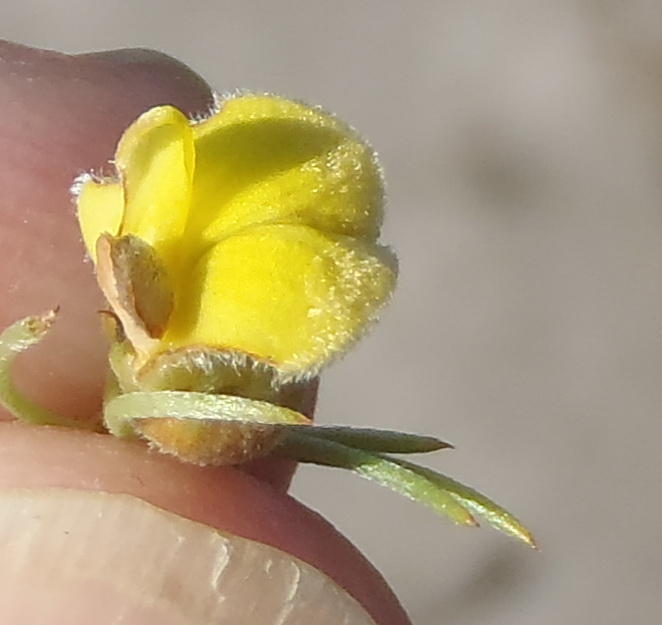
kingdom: Plantae
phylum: Tracheophyta
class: Magnoliopsida
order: Fabales
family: Fabaceae
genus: Aspalathus
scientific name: Aspalathus setacea
